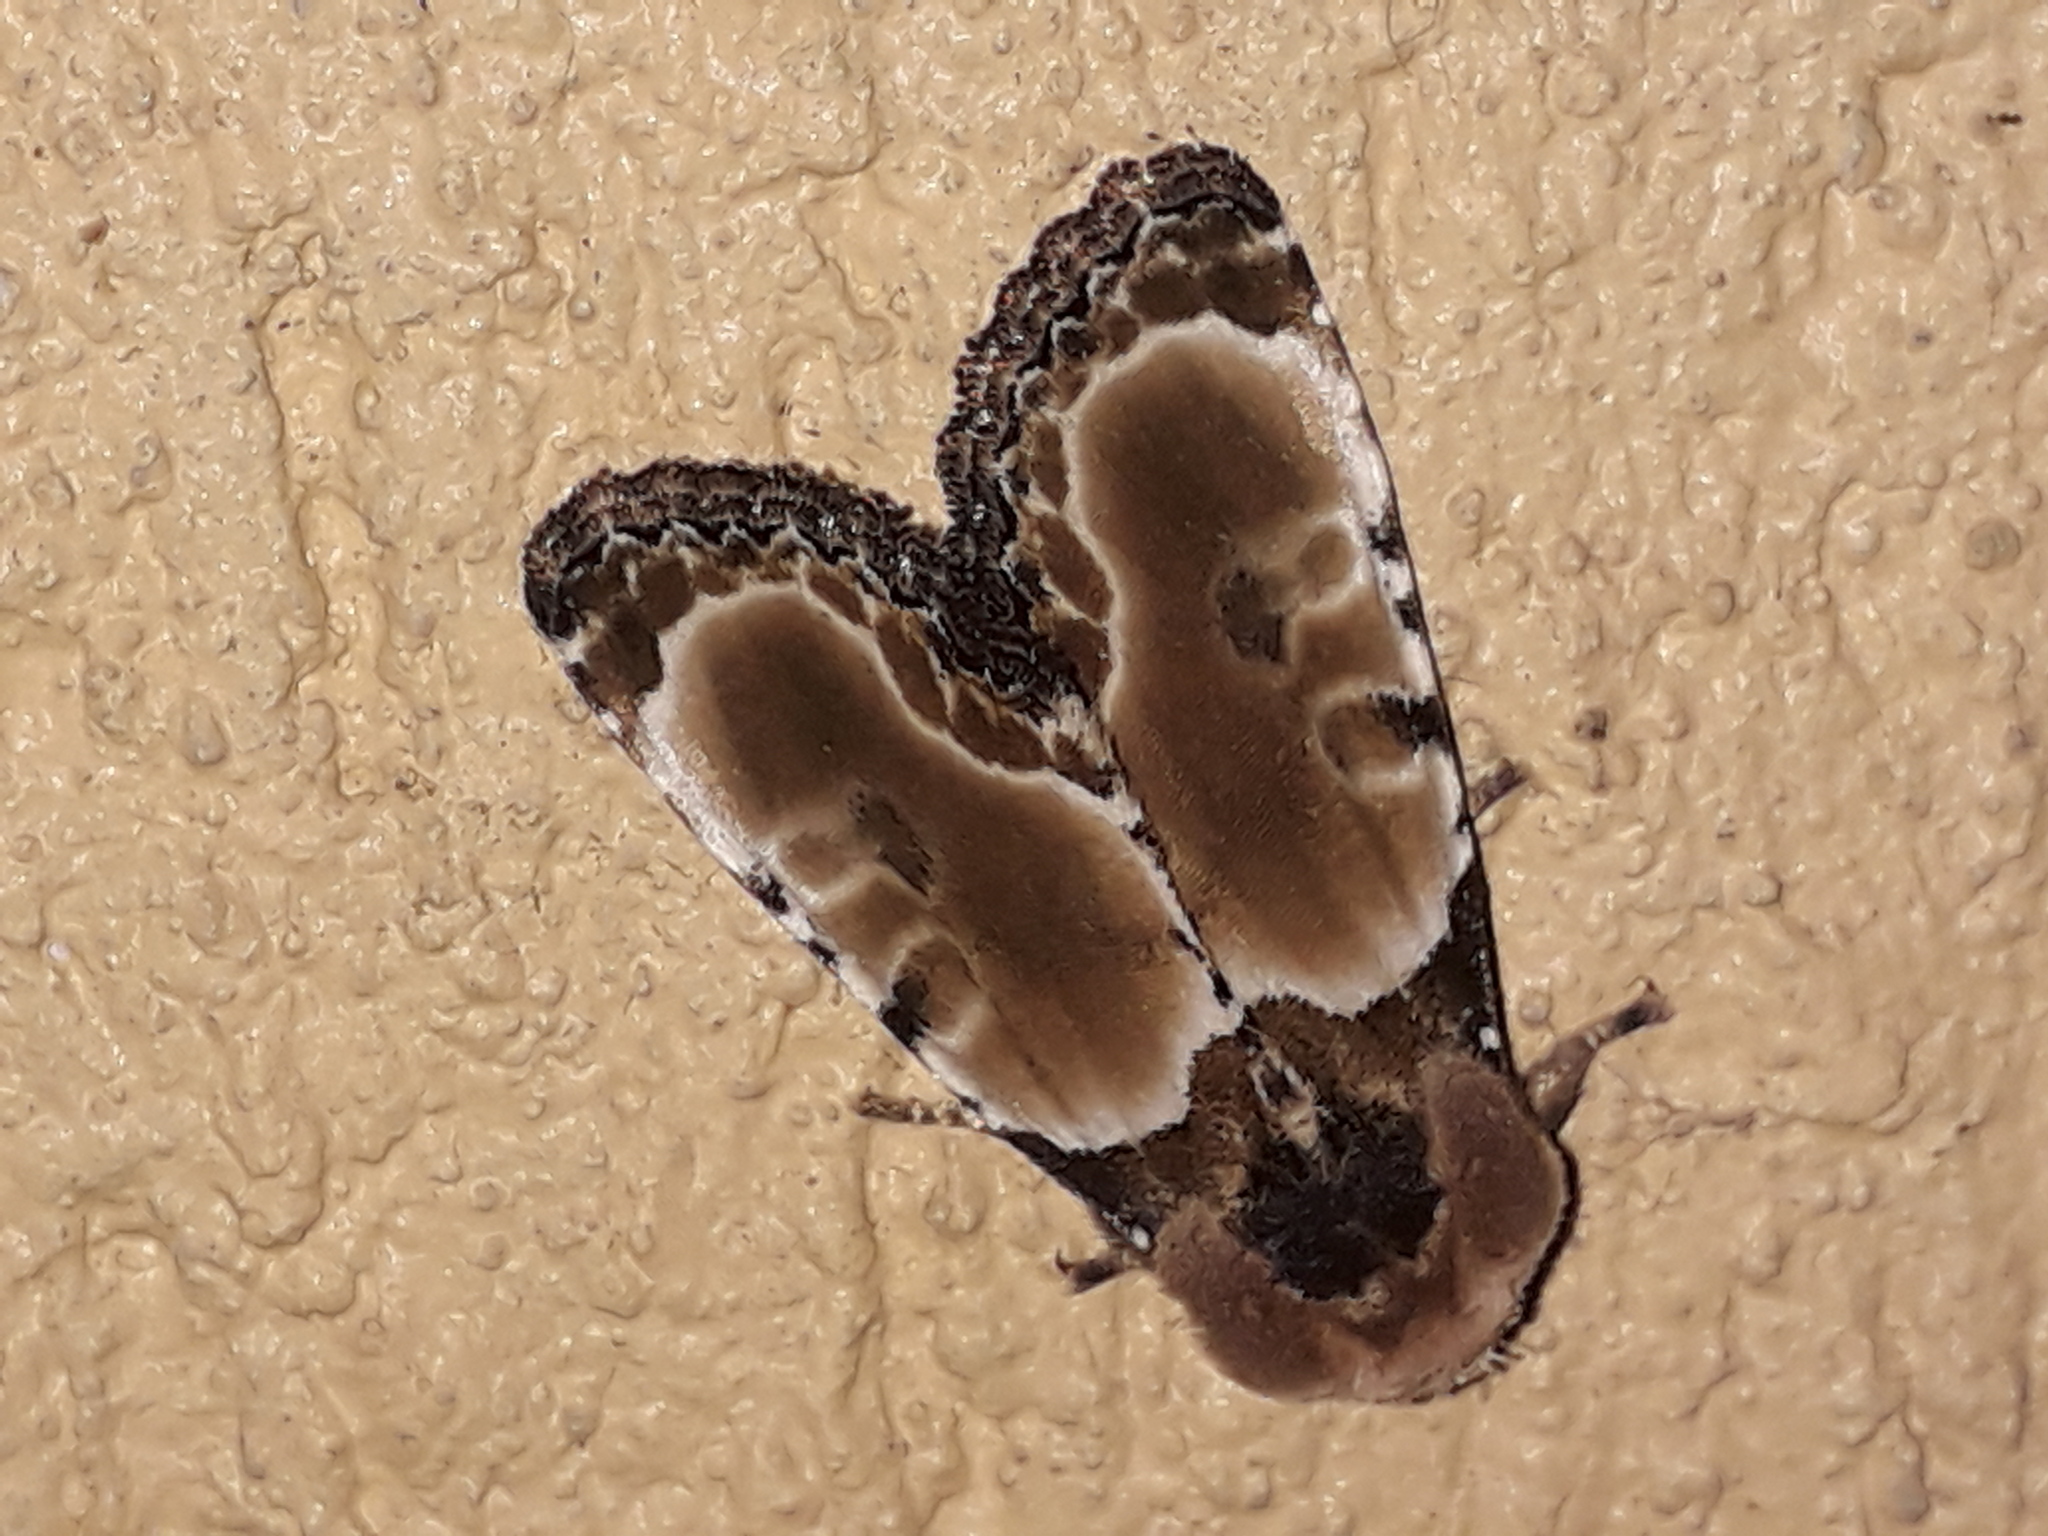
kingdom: Animalia
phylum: Arthropoda
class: Insecta
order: Lepidoptera
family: Noctuidae
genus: Thyatirodes
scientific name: Thyatirodes godalma
